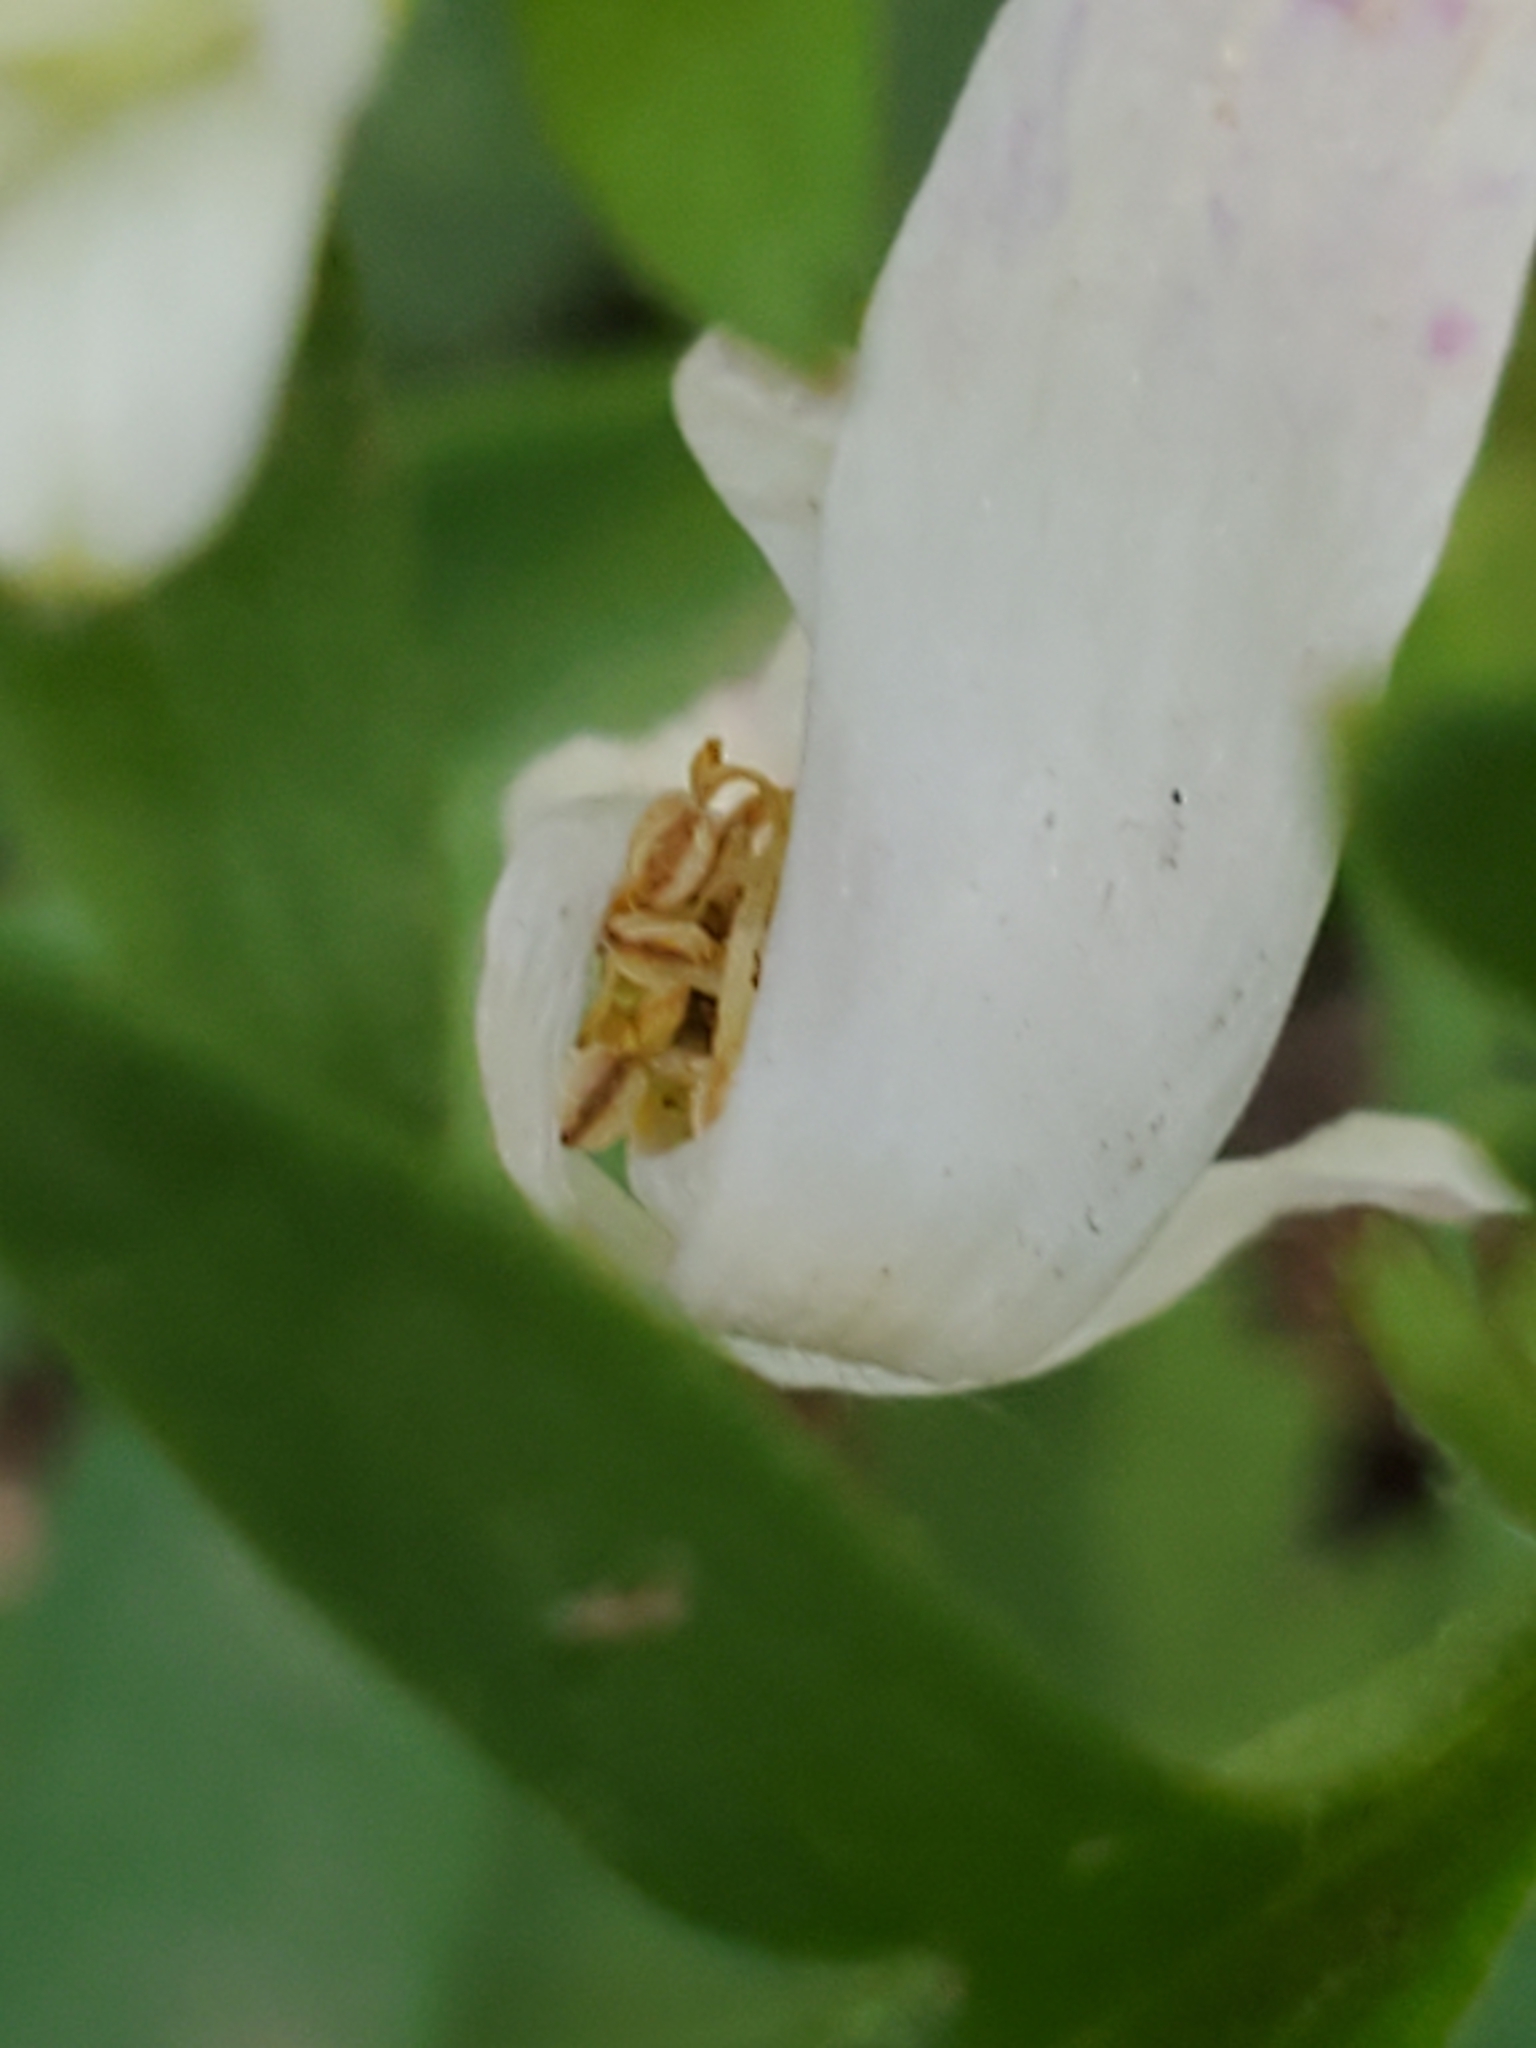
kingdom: Plantae
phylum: Tracheophyta
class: Magnoliopsida
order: Ranunculales
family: Ranunculaceae
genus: Anemone
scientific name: Anemone edwardsiana
